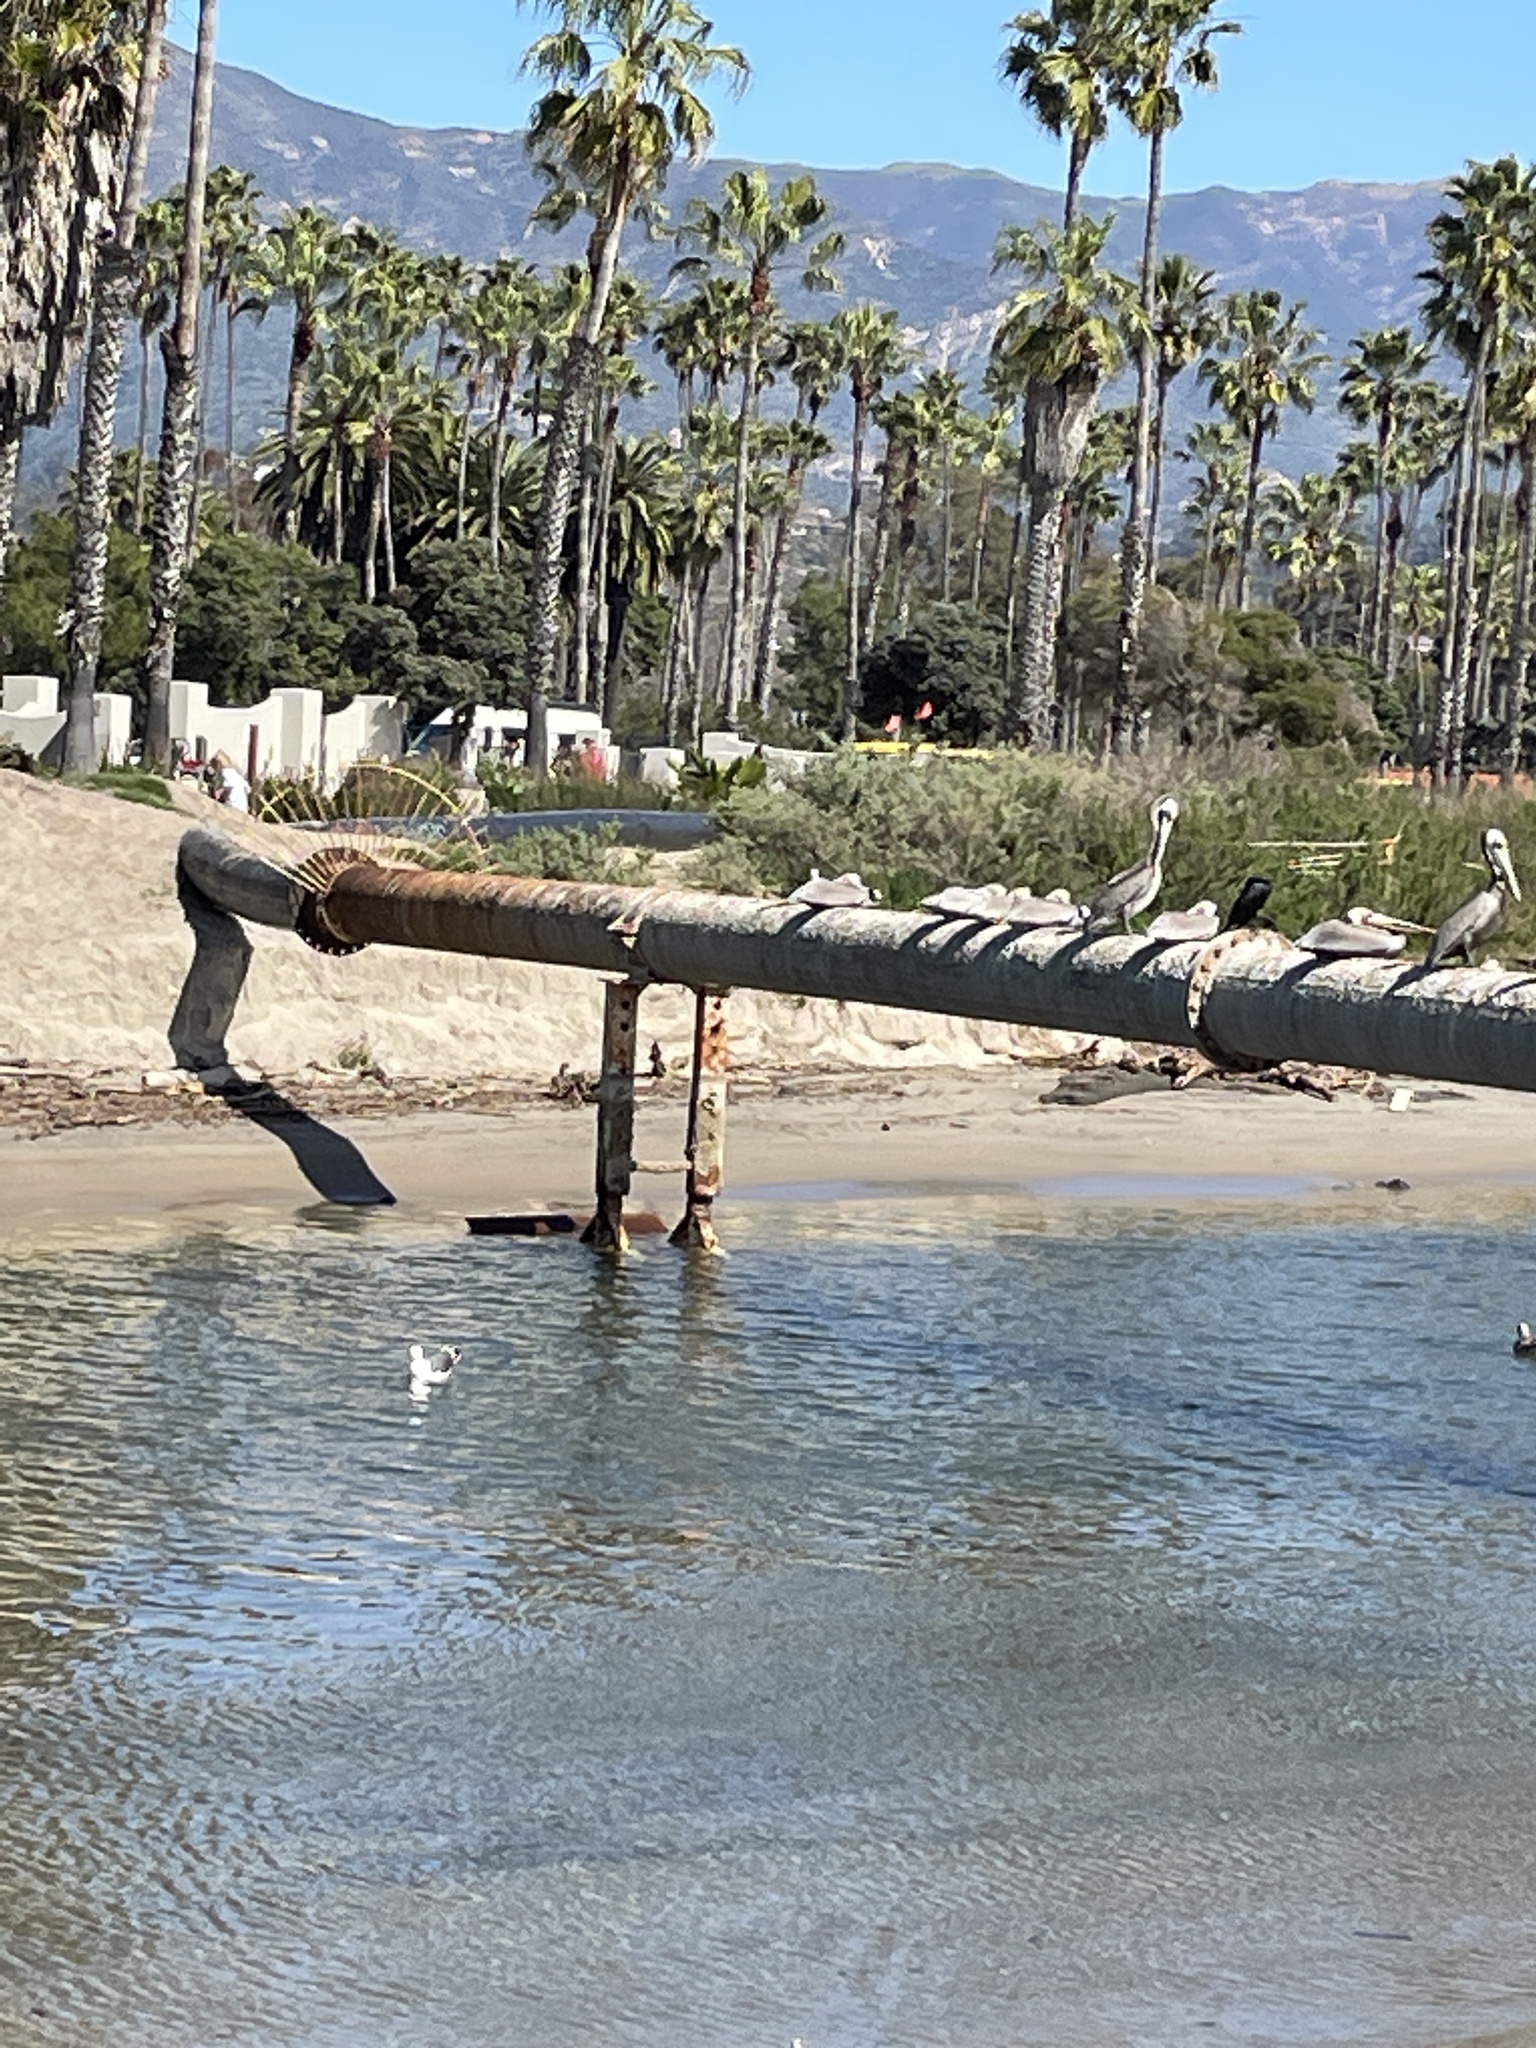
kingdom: Animalia
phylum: Chordata
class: Aves
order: Pelecaniformes
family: Pelecanidae
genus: Pelecanus
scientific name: Pelecanus occidentalis
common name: Brown pelican
